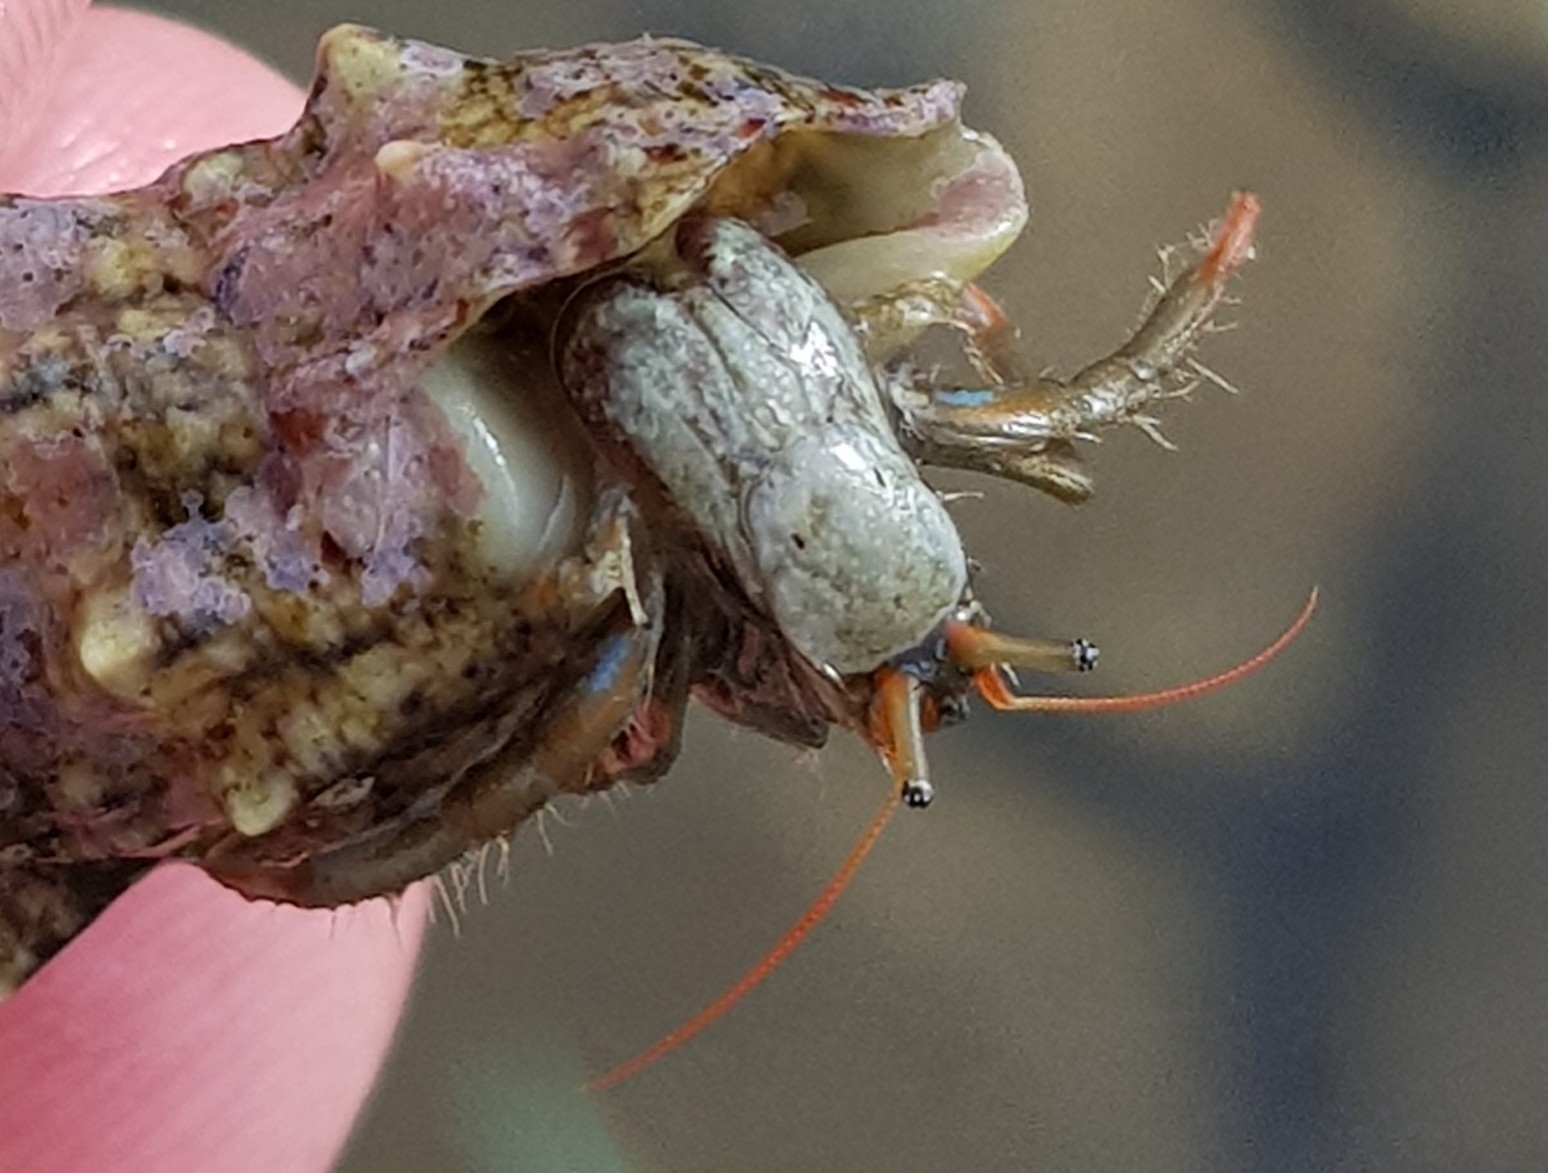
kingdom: Animalia
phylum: Arthropoda
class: Malacostraca
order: Decapoda
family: Diogenidae
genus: Clibanarius
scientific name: Clibanarius erythropus
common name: Hermit crab
